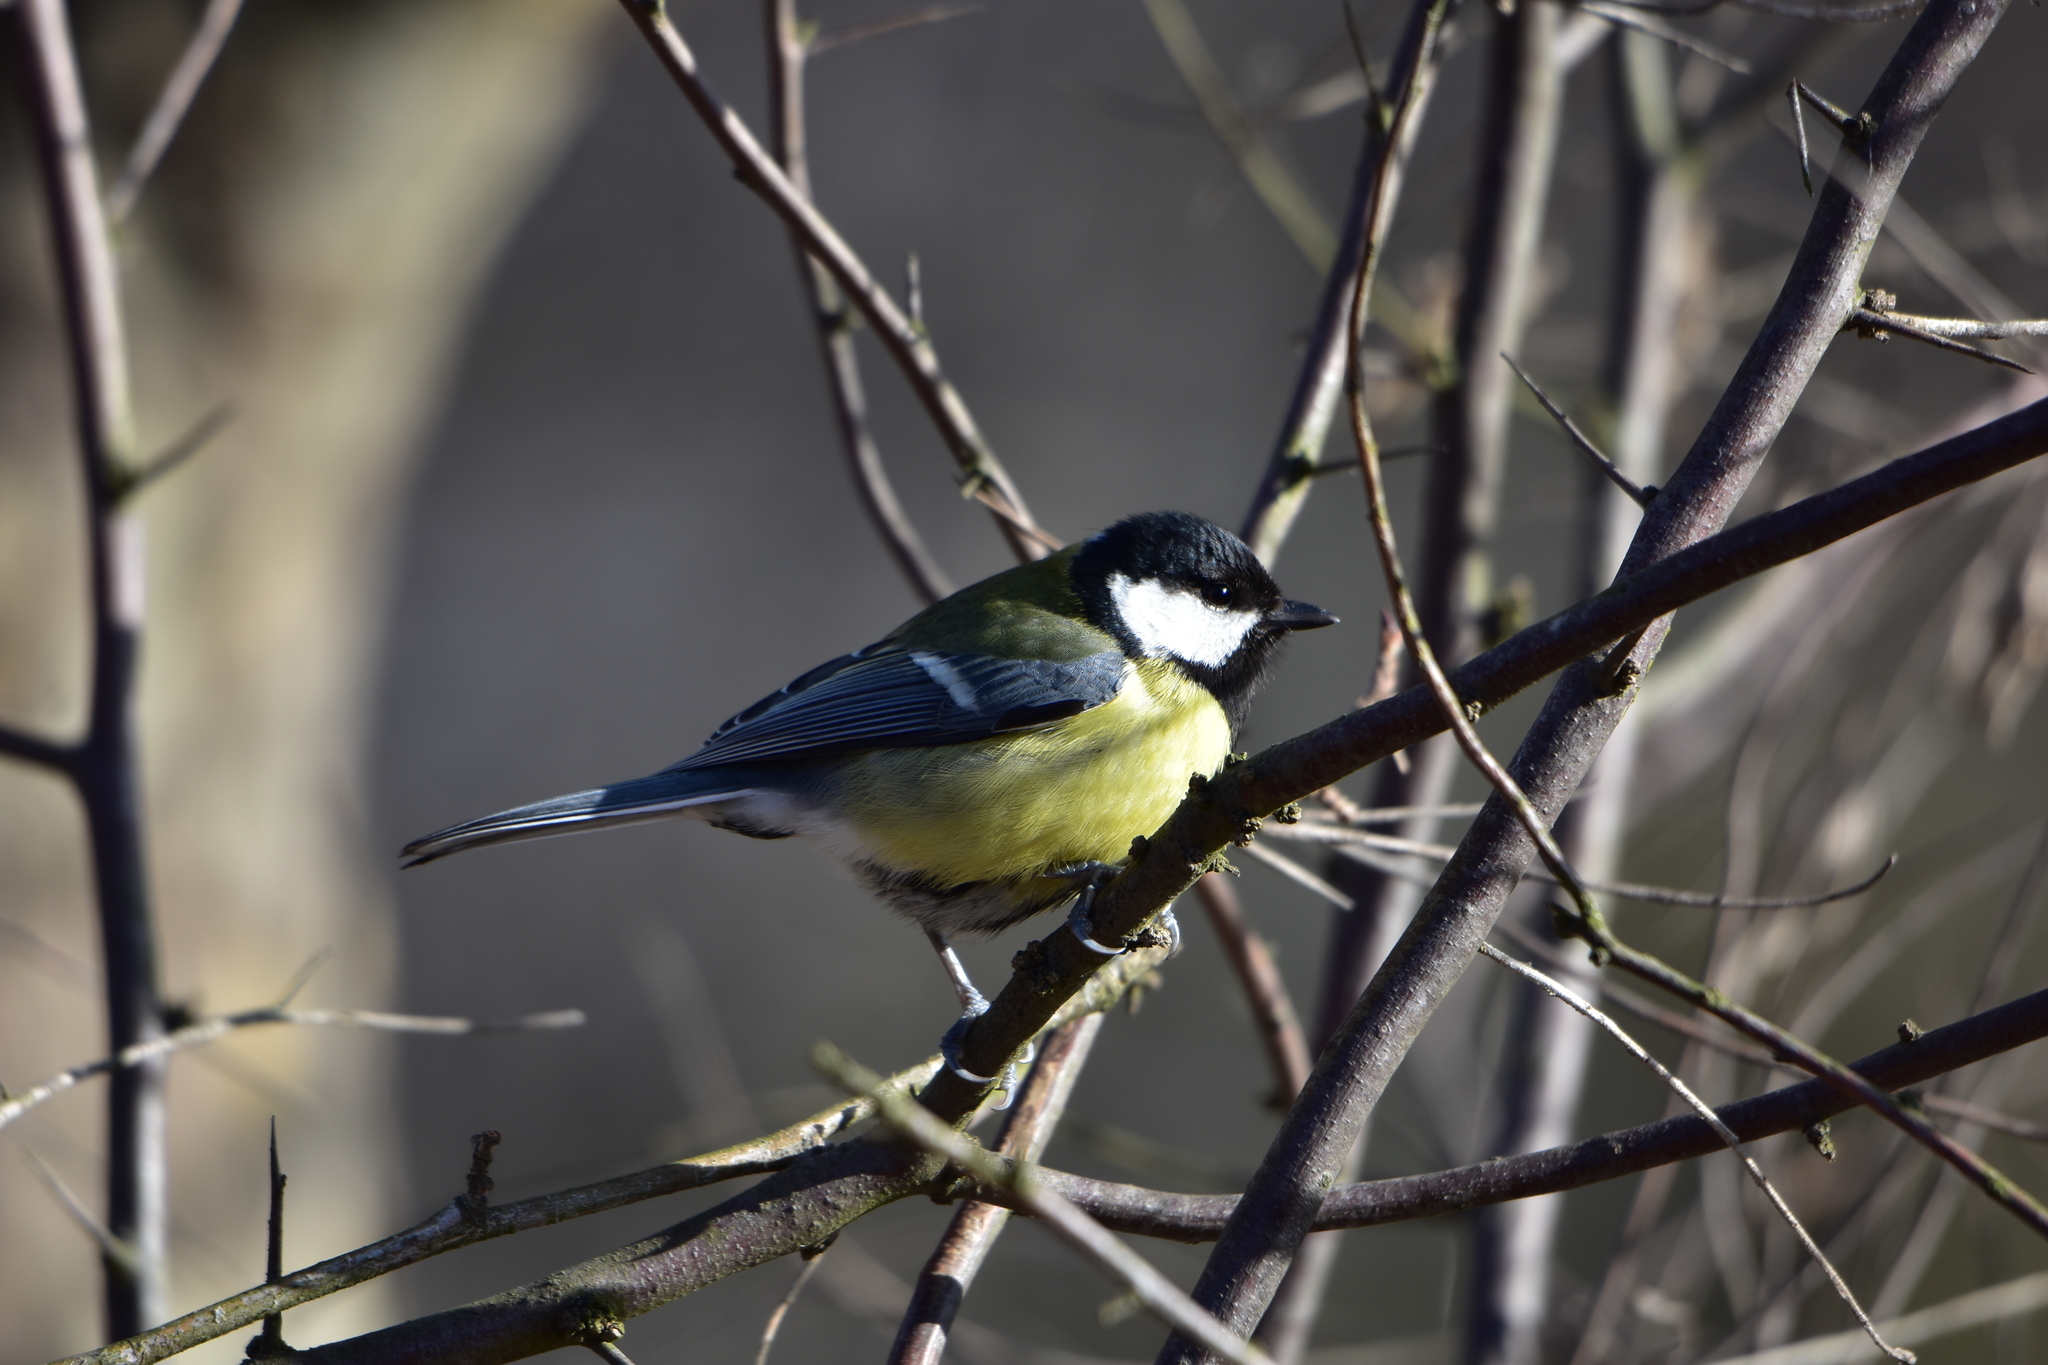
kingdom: Animalia
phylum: Chordata
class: Aves
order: Passeriformes
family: Paridae
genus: Parus
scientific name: Parus major
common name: Great tit
